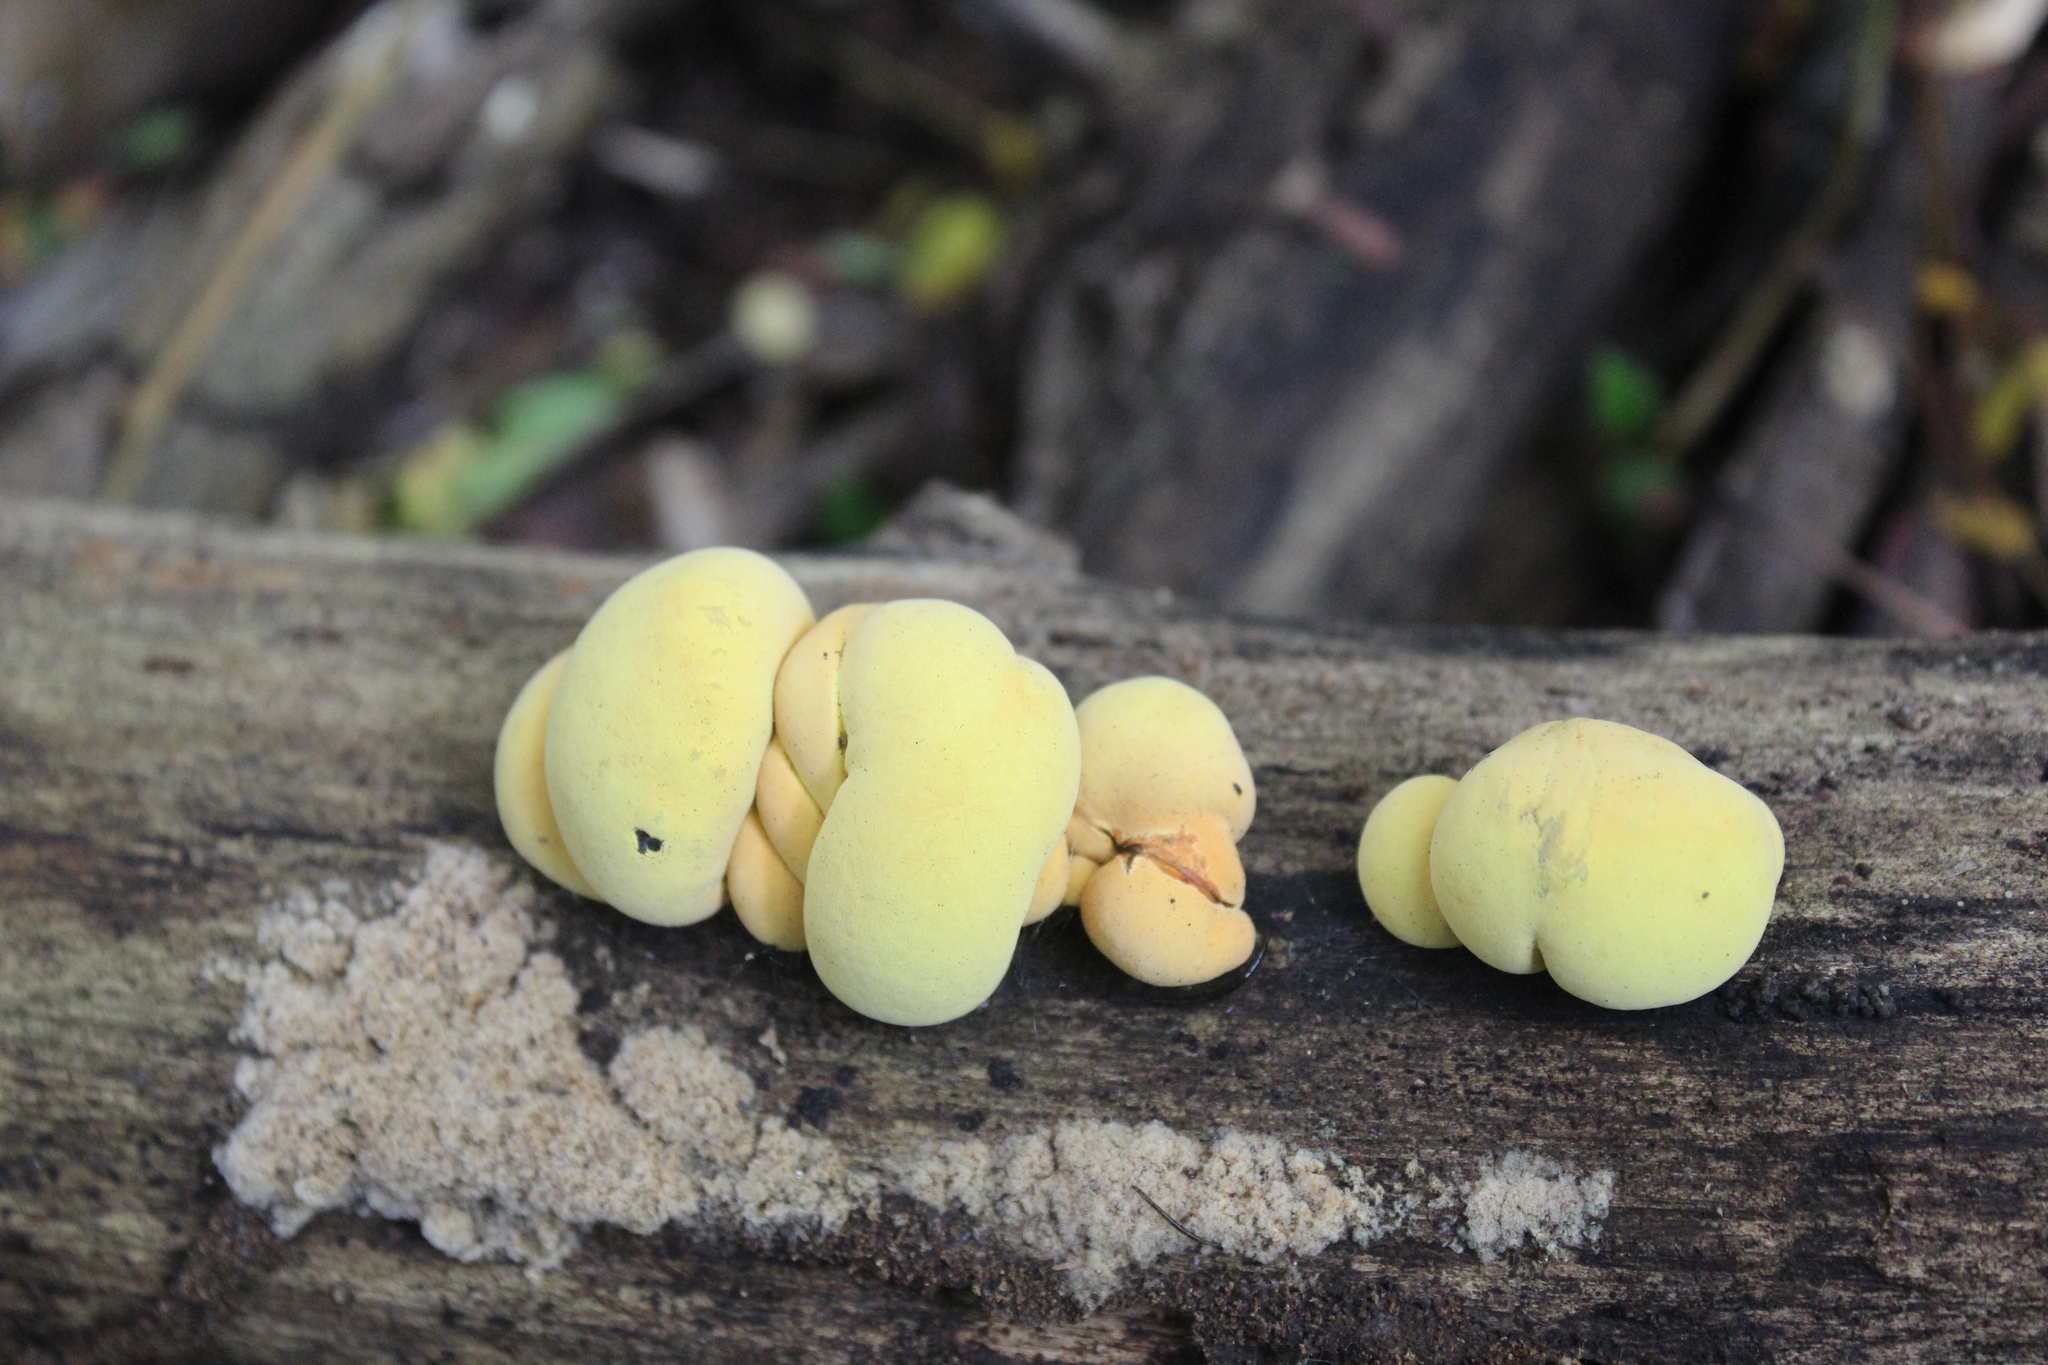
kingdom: Fungi
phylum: Ascomycota
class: Sordariomycetes
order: Xylariales
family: Hypoxylaceae
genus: Entonaema
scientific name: Entonaema liquescens
